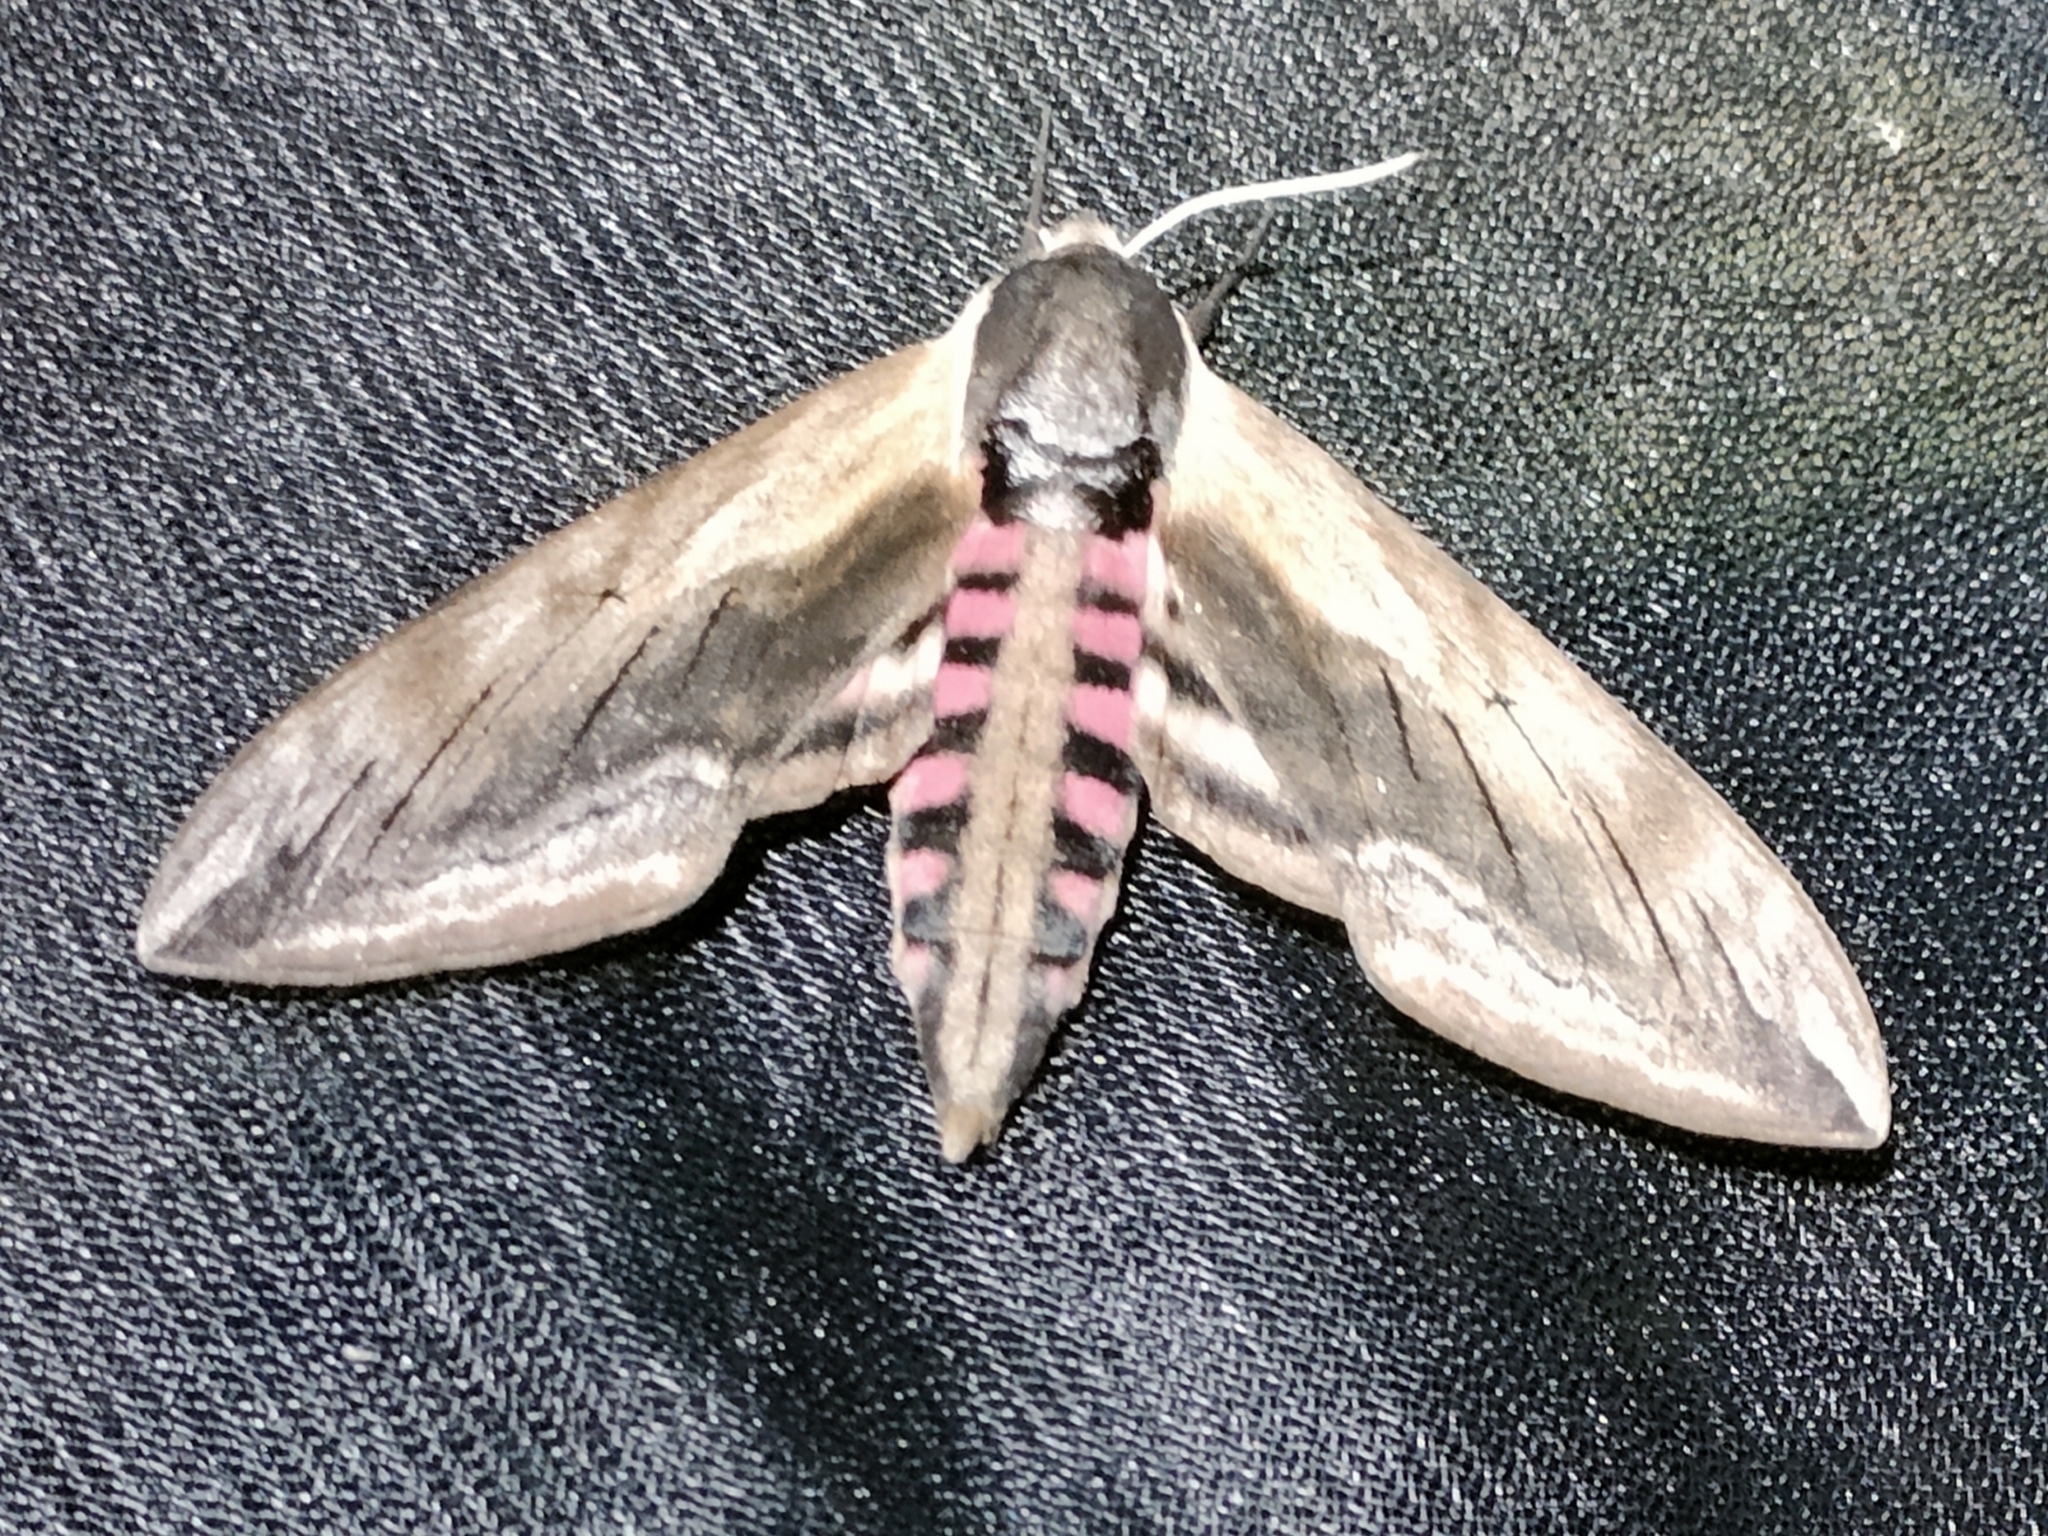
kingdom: Animalia
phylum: Arthropoda
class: Insecta
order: Lepidoptera
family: Sphingidae
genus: Sphinx
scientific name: Sphinx ligustri
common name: Privet hawk-moth
